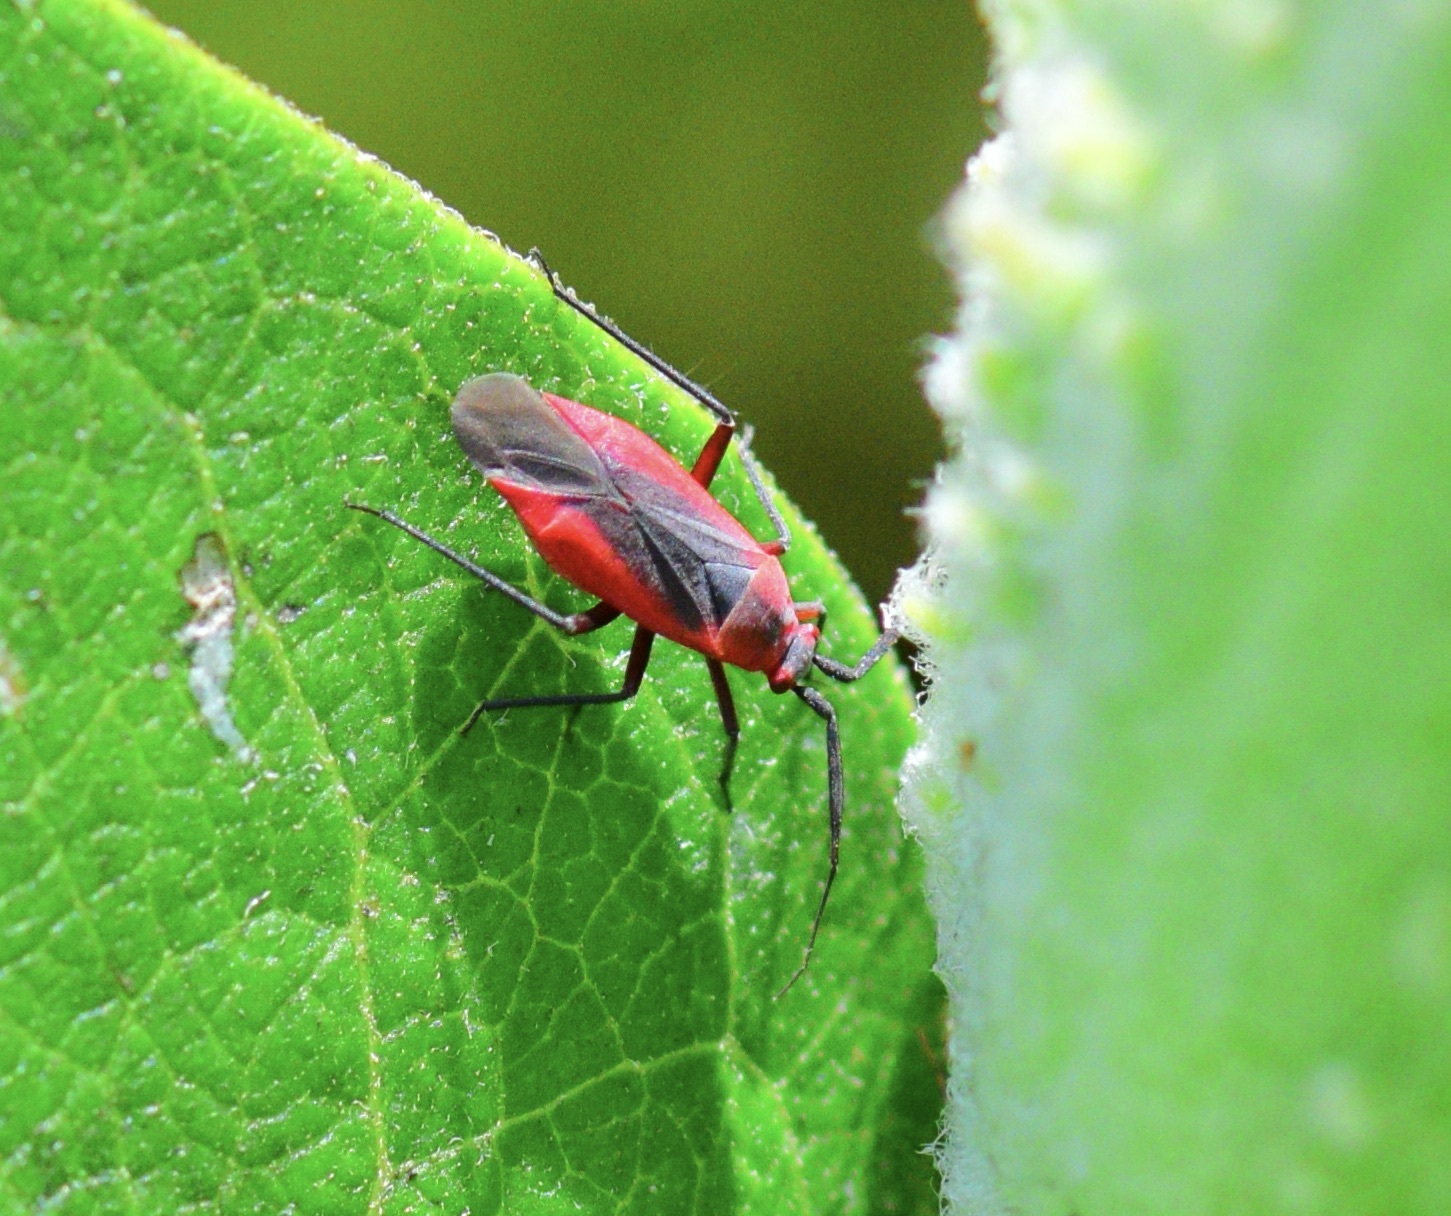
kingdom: Animalia
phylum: Arthropoda
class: Insecta
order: Hemiptera
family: Miridae
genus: Lopidea
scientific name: Lopidea instabilis
